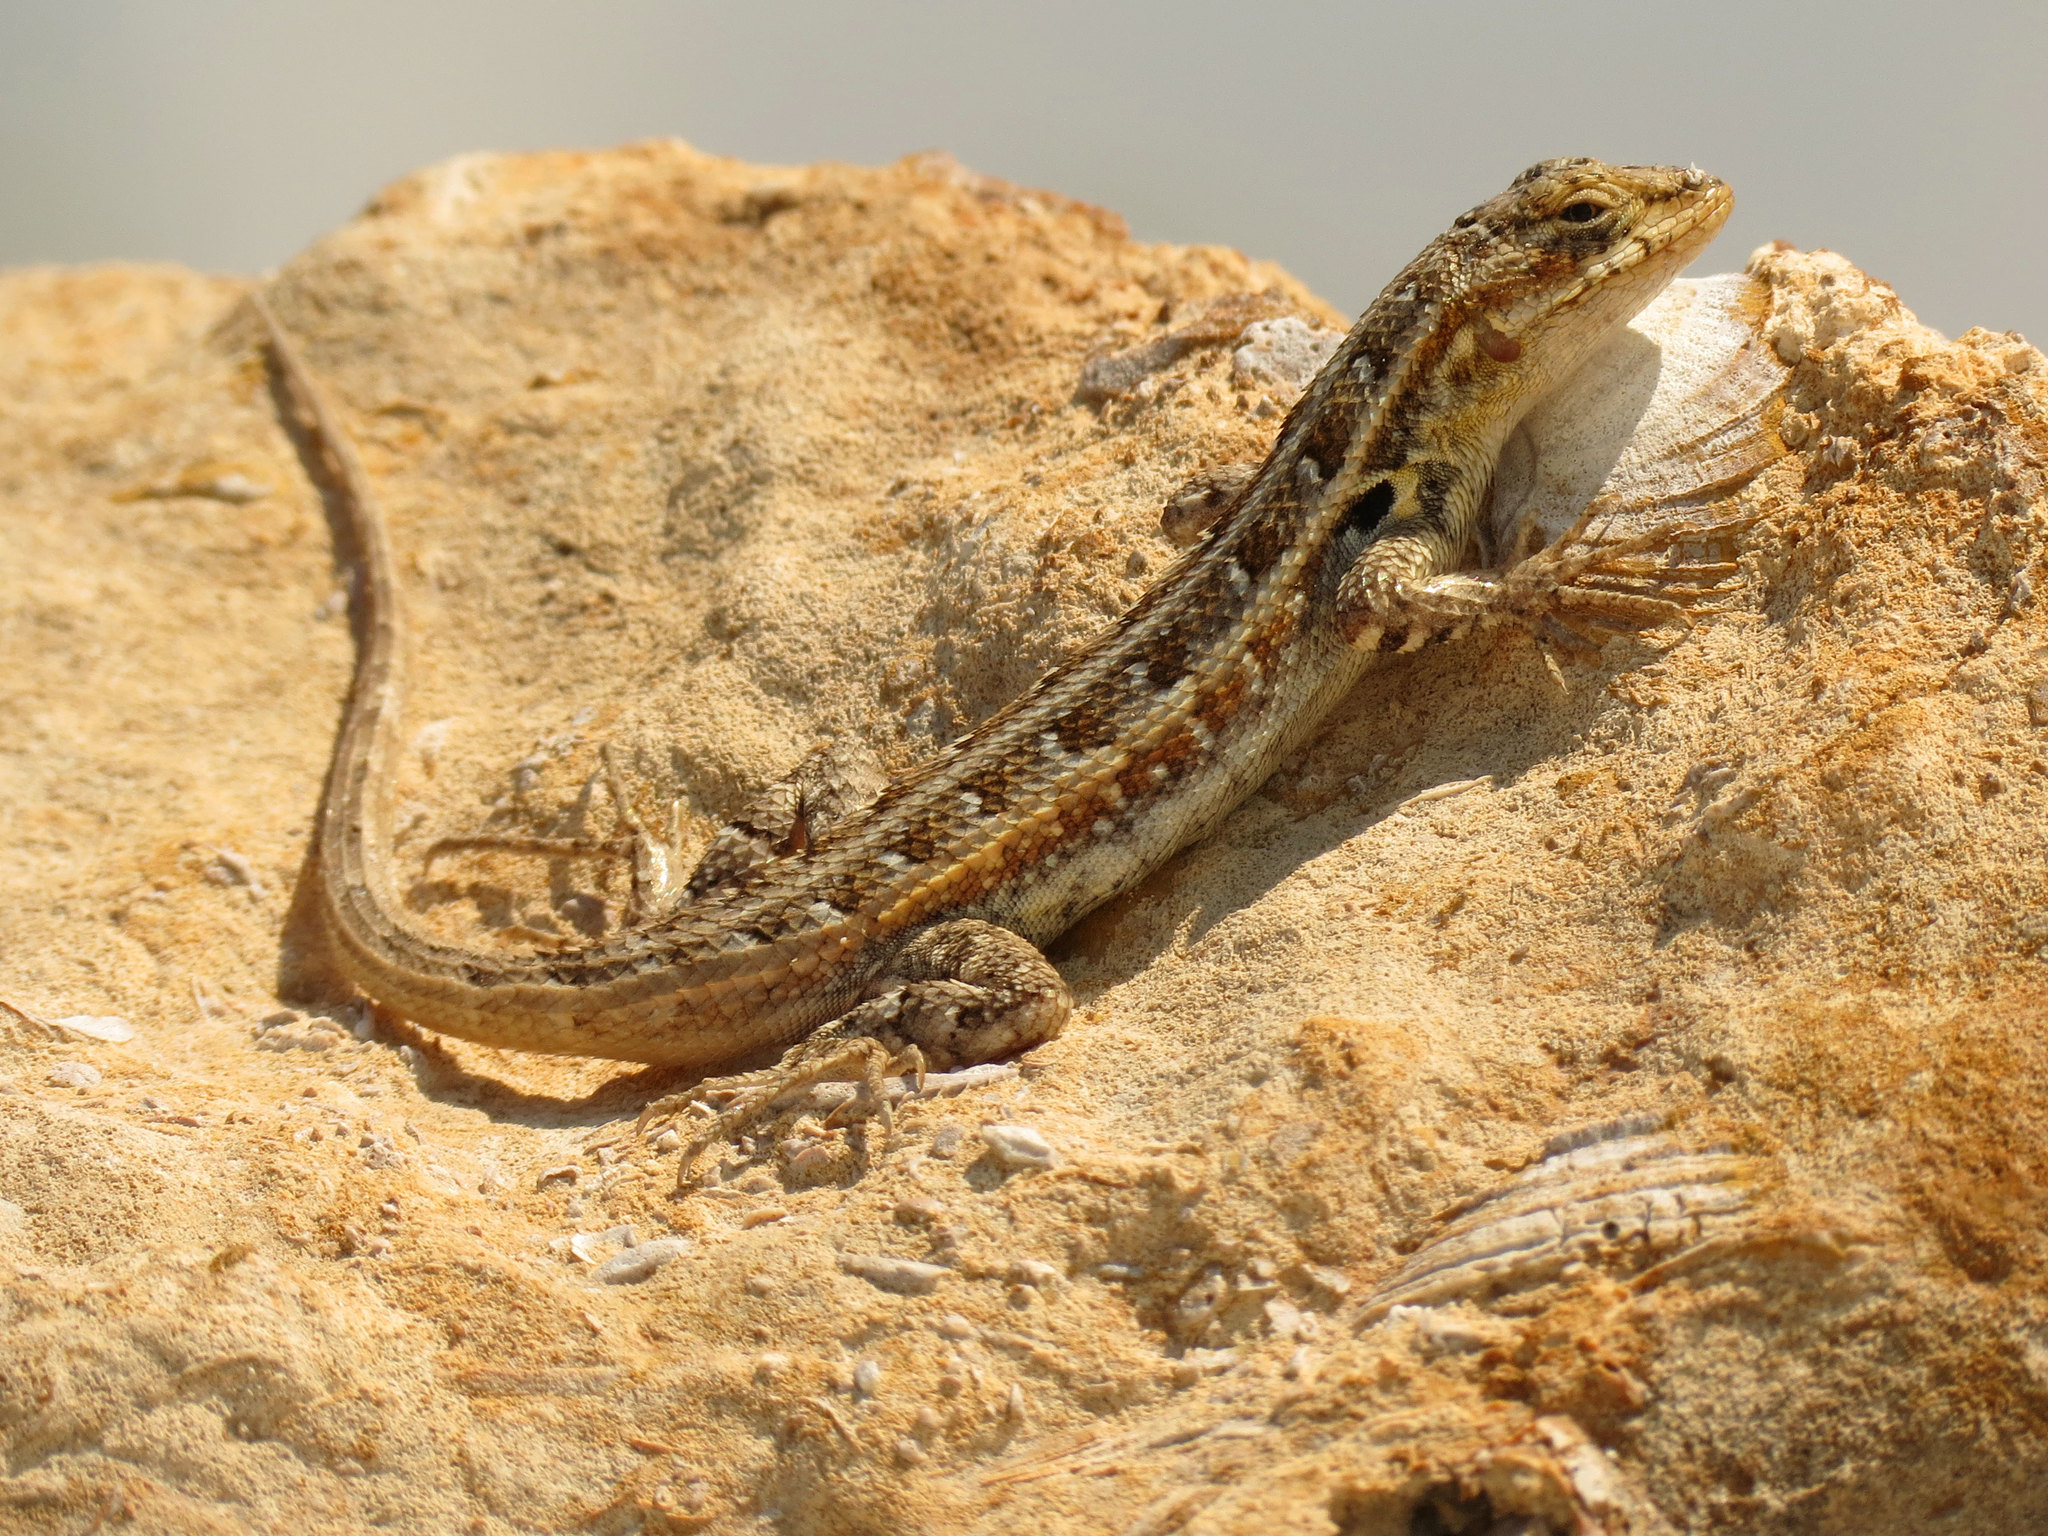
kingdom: Animalia
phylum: Chordata
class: Squamata
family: Phrynosomatidae
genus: Sceloporus
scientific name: Sceloporus cozumelae
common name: Cozumel spiny lizard
